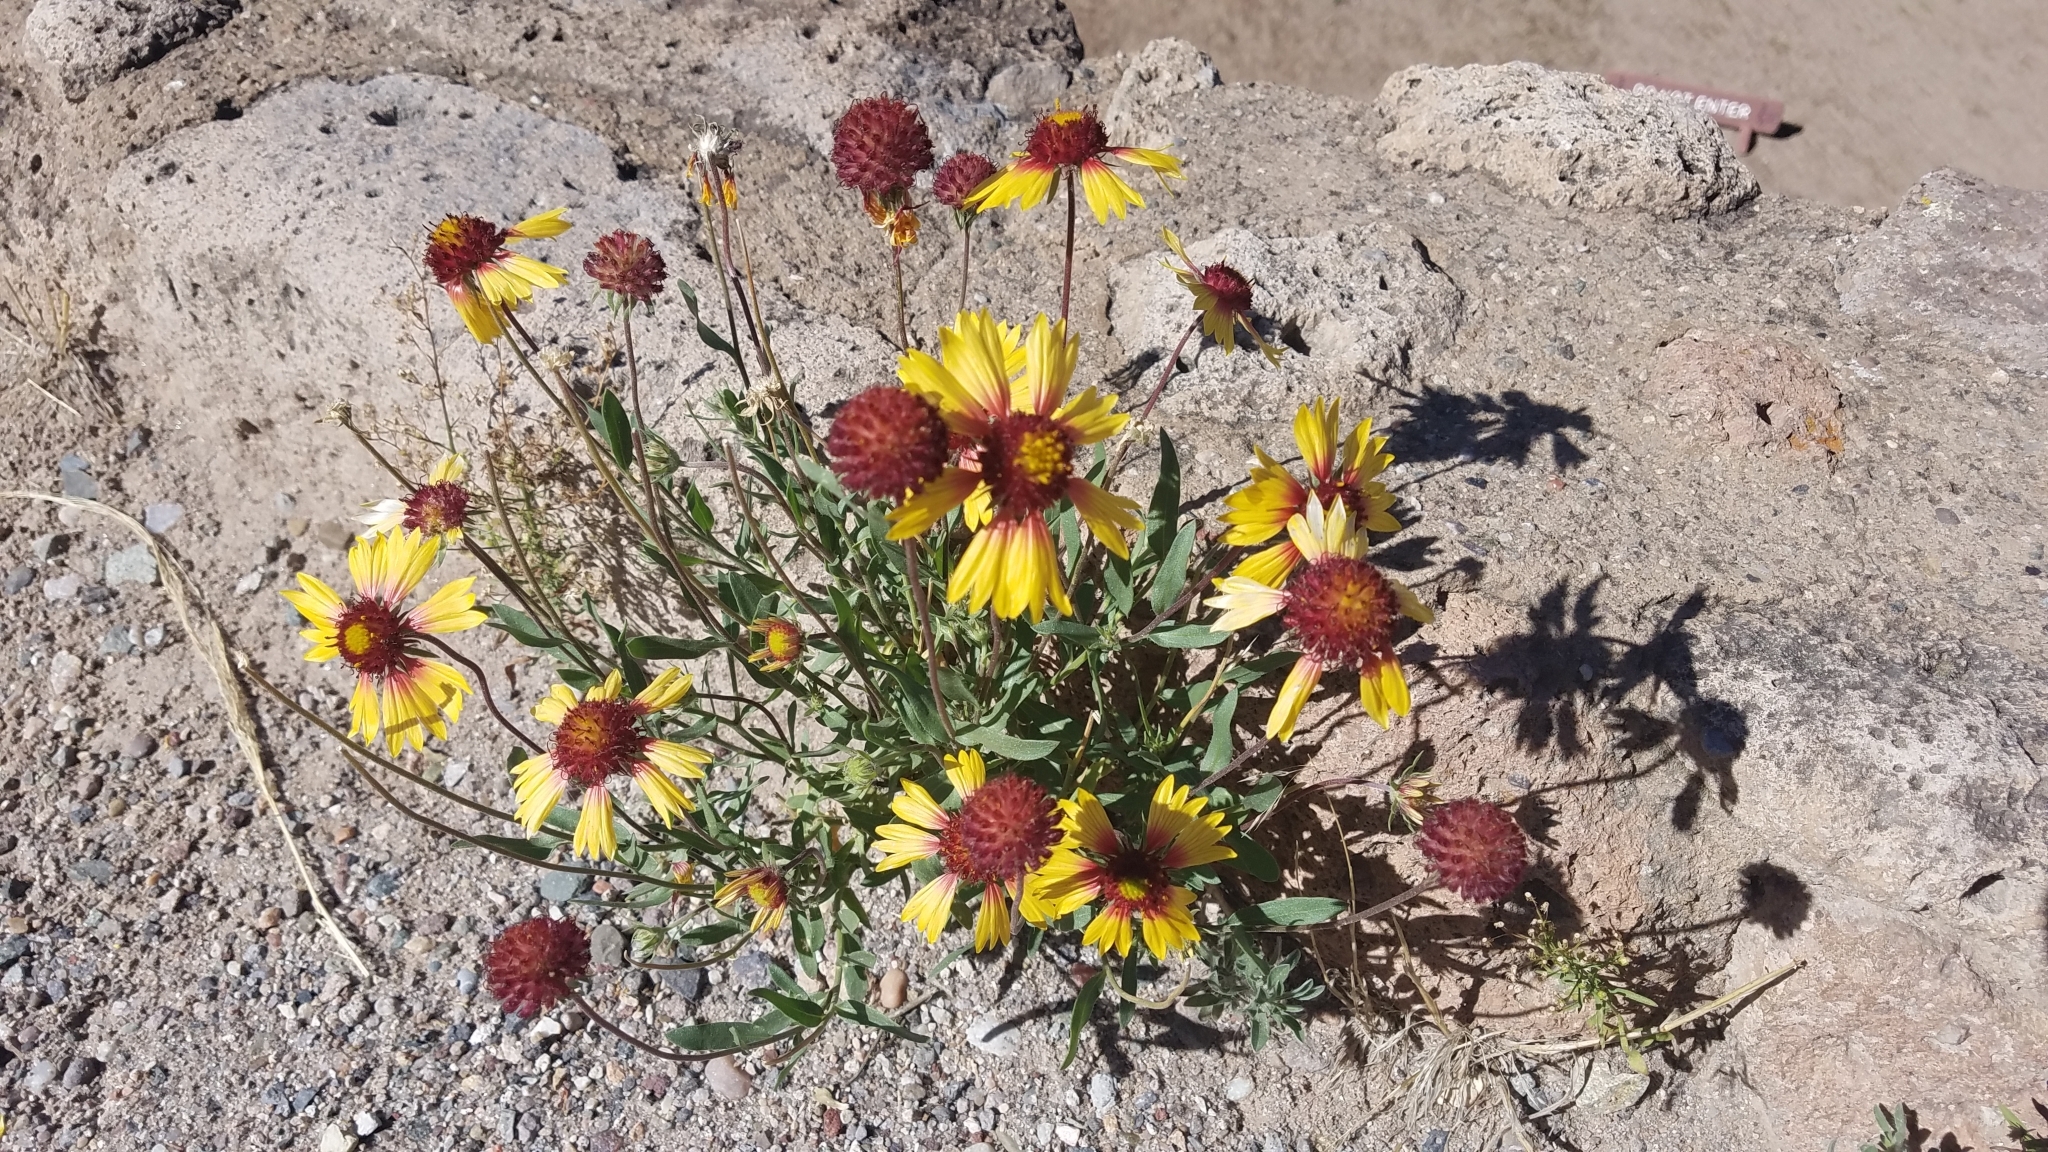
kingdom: Plantae
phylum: Tracheophyta
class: Magnoliopsida
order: Asterales
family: Asteraceae
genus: Gaillardia
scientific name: Gaillardia pulchella
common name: Firewheel
